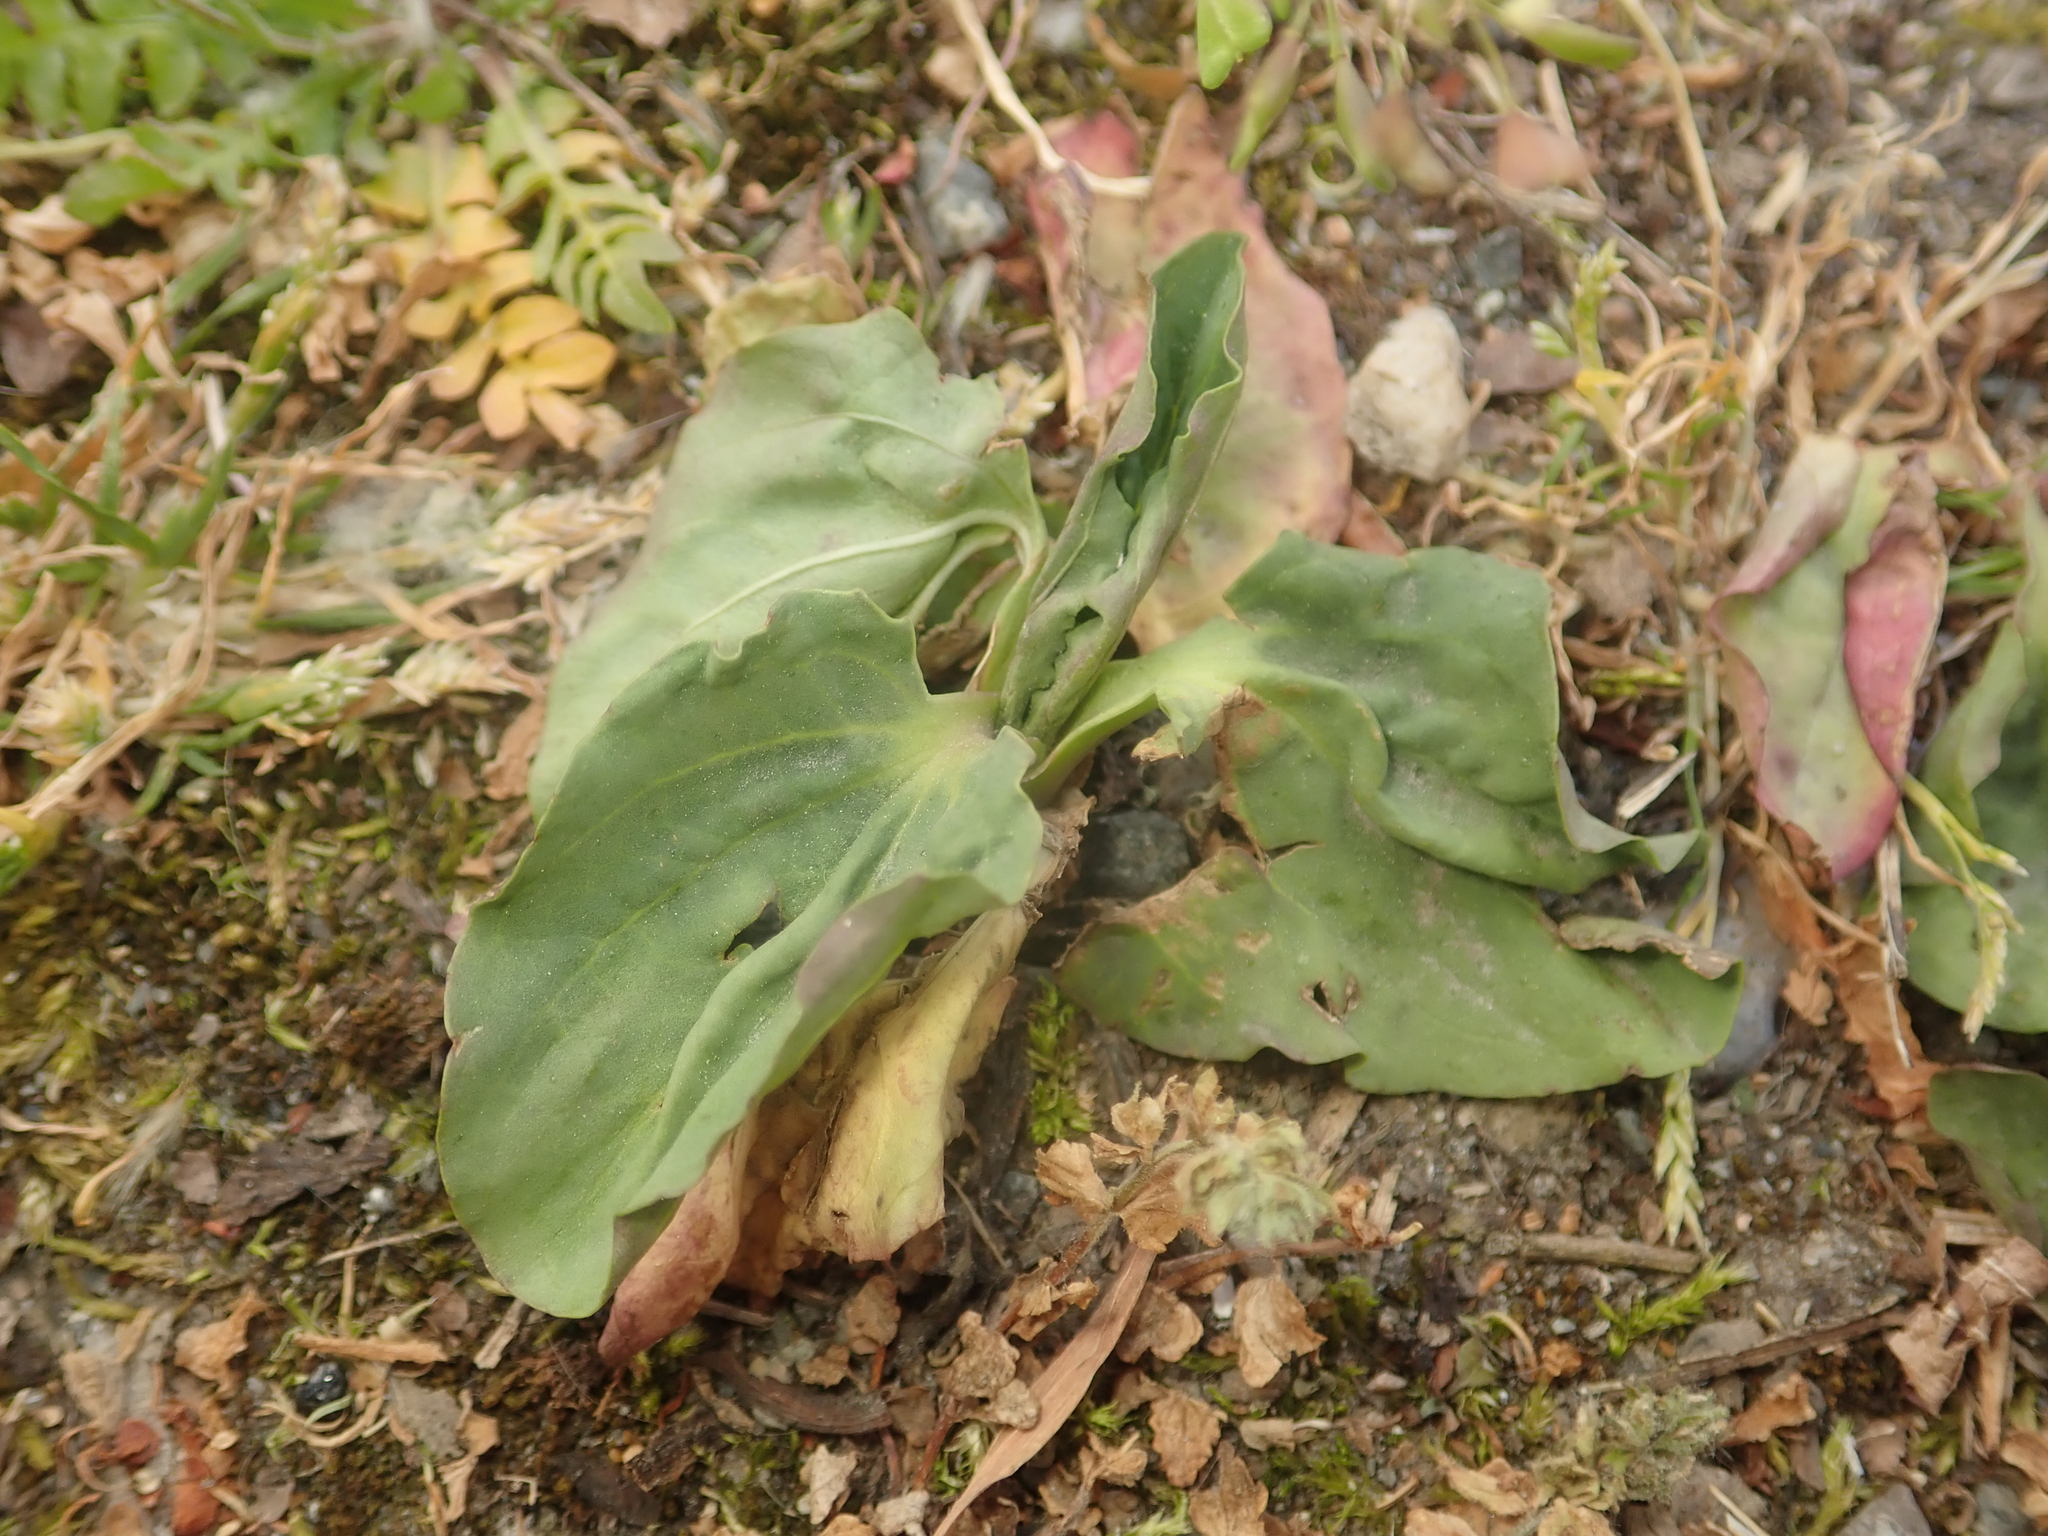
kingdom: Plantae
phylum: Tracheophyta
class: Magnoliopsida
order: Lamiales
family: Plantaginaceae
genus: Plantago
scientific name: Plantago major
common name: Common plantain
